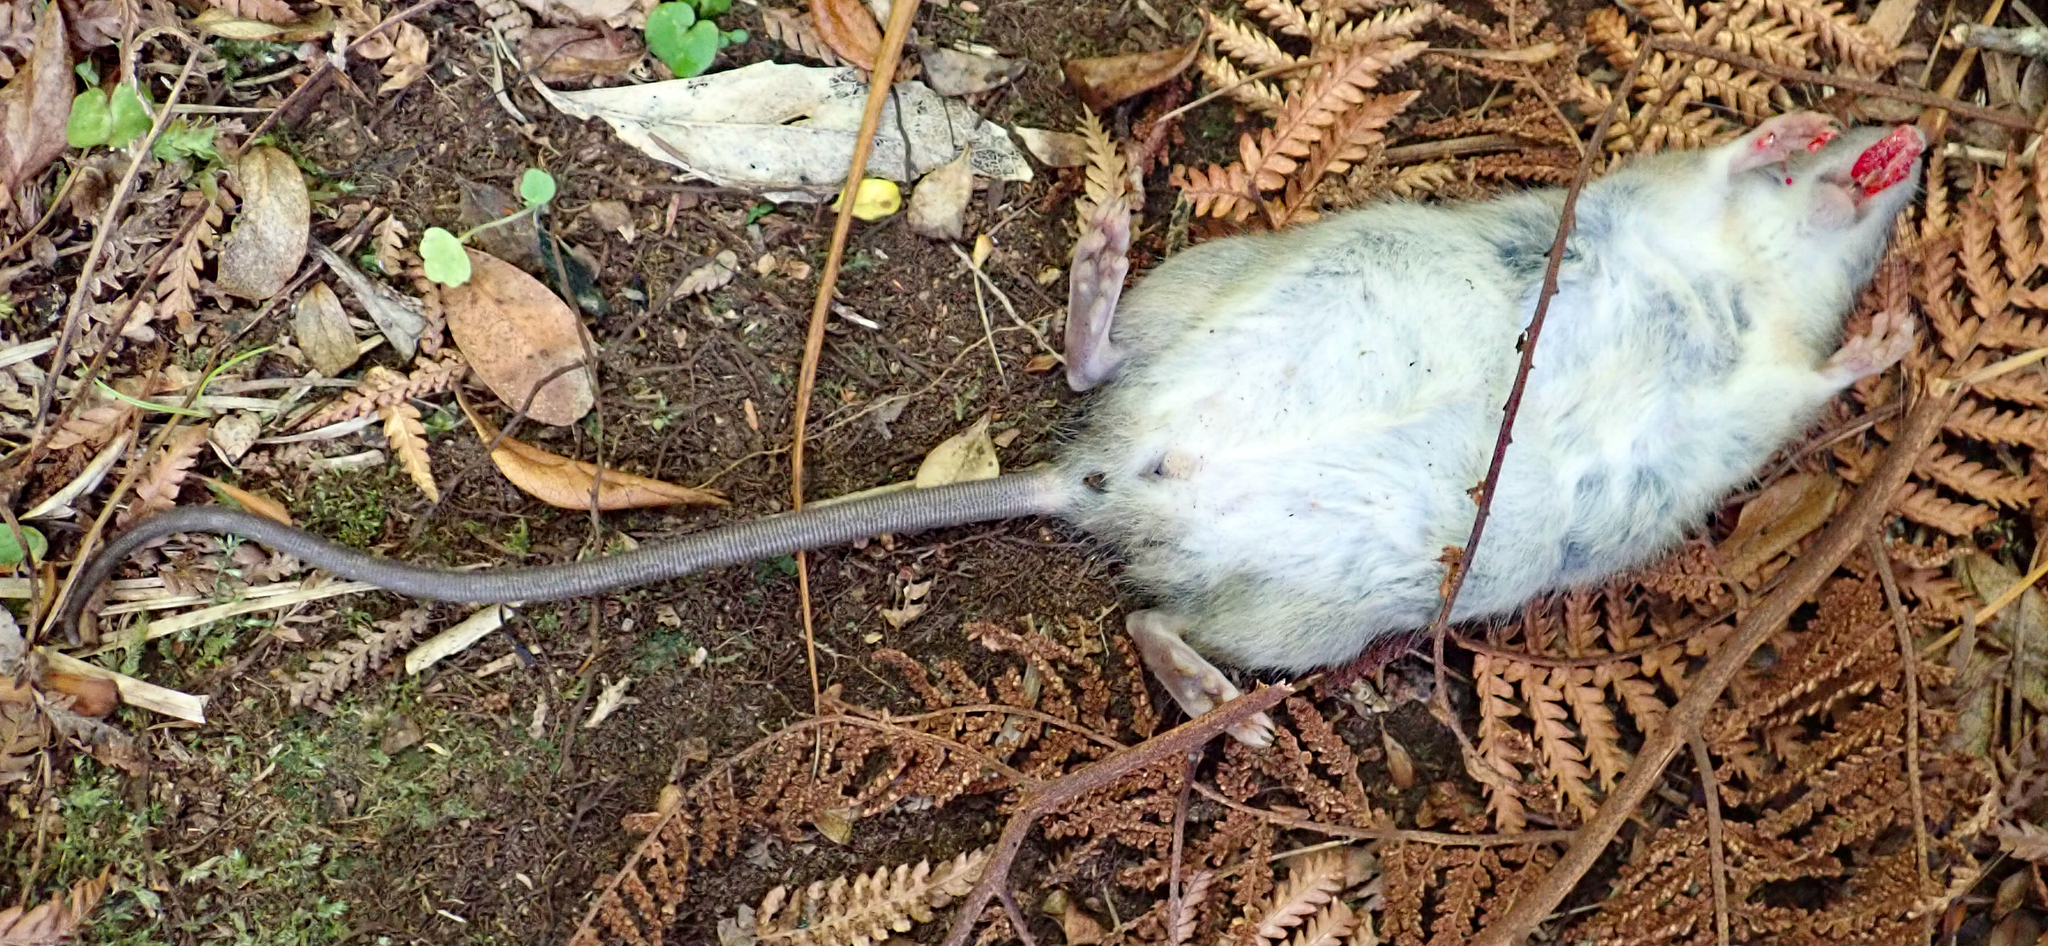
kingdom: Animalia
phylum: Chordata
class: Mammalia
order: Rodentia
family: Muridae
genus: Rattus
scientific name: Rattus rattus
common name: Black rat
